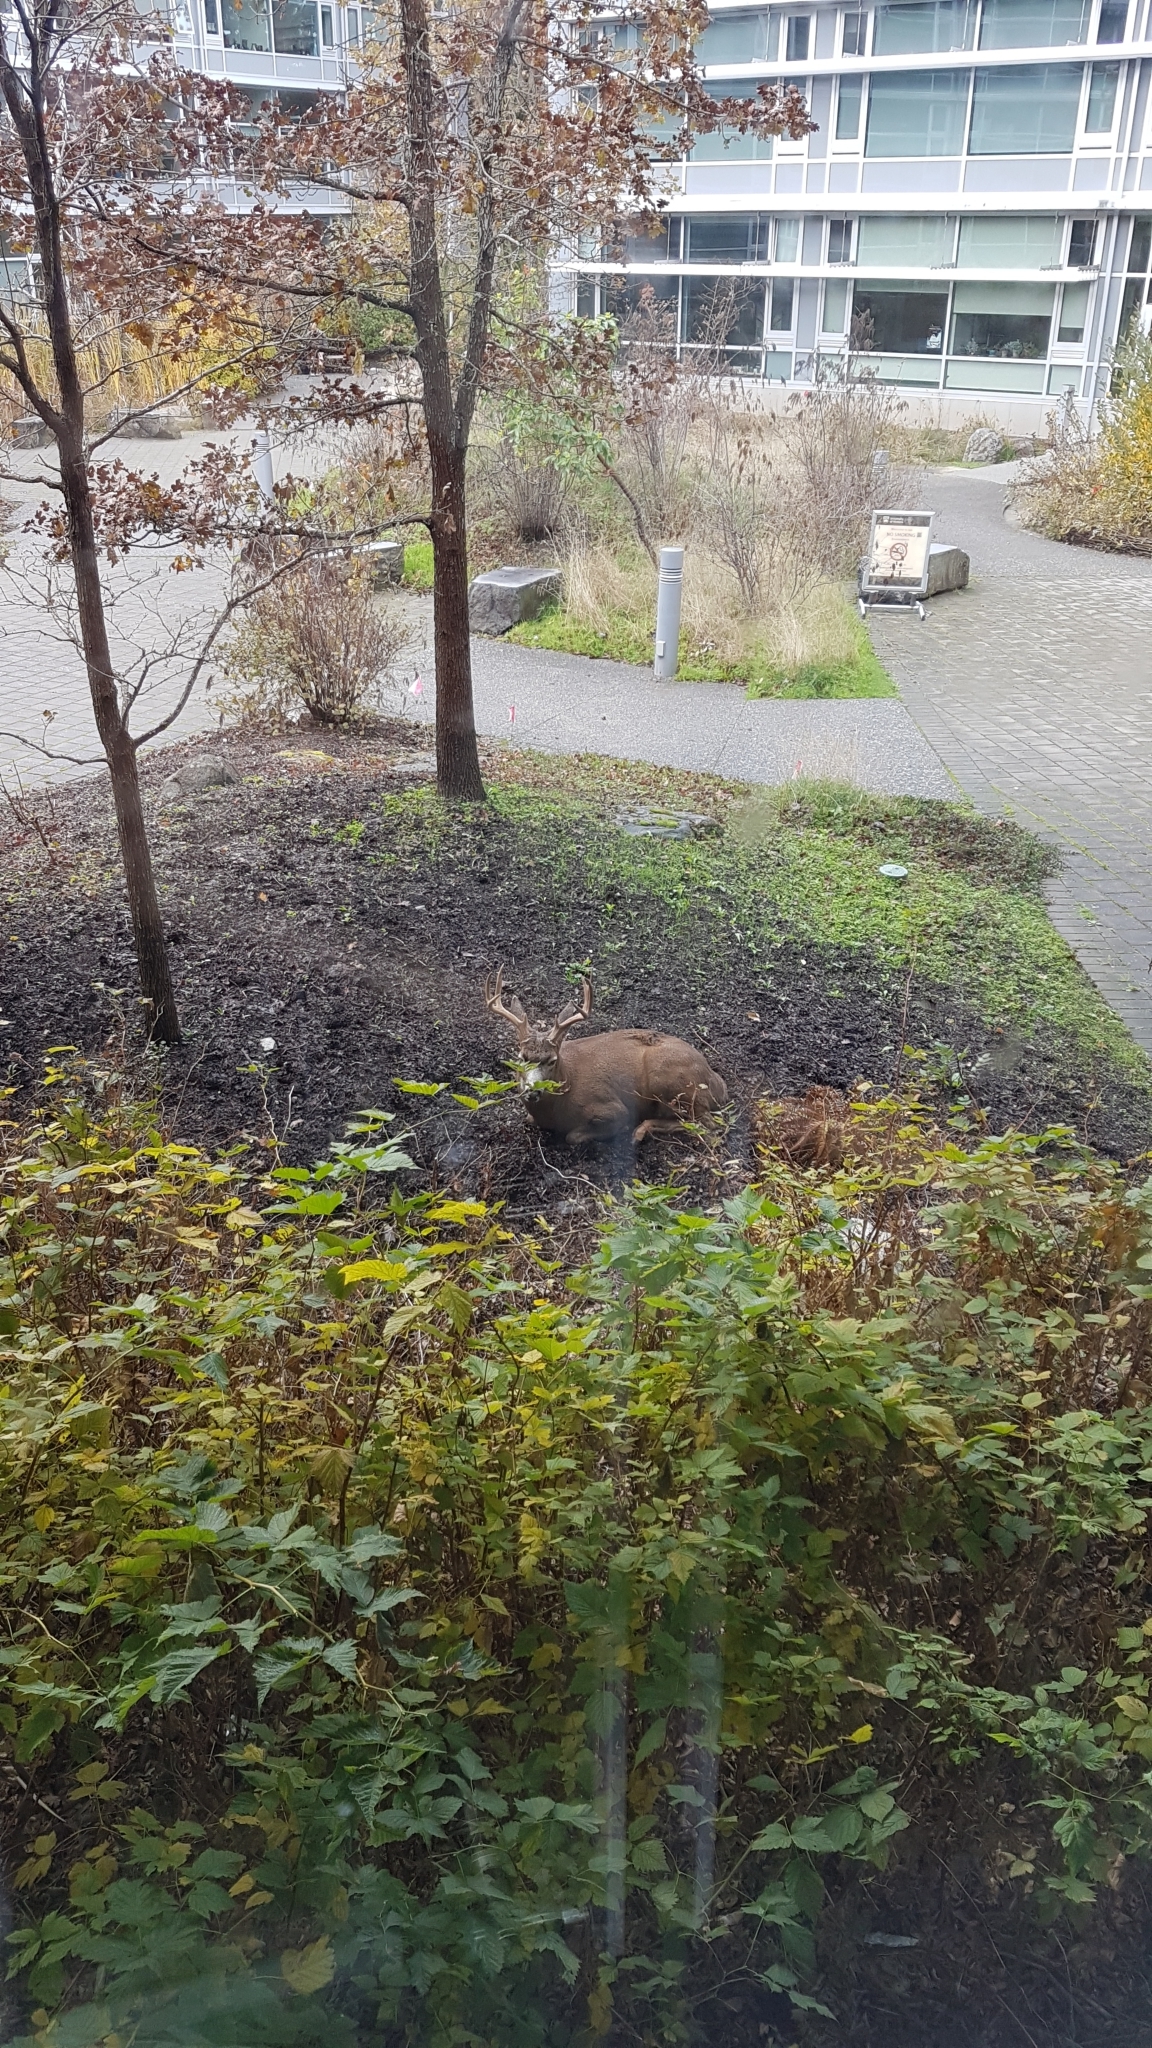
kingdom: Animalia
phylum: Chordata
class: Mammalia
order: Artiodactyla
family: Cervidae
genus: Odocoileus
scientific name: Odocoileus hemionus
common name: Mule deer
